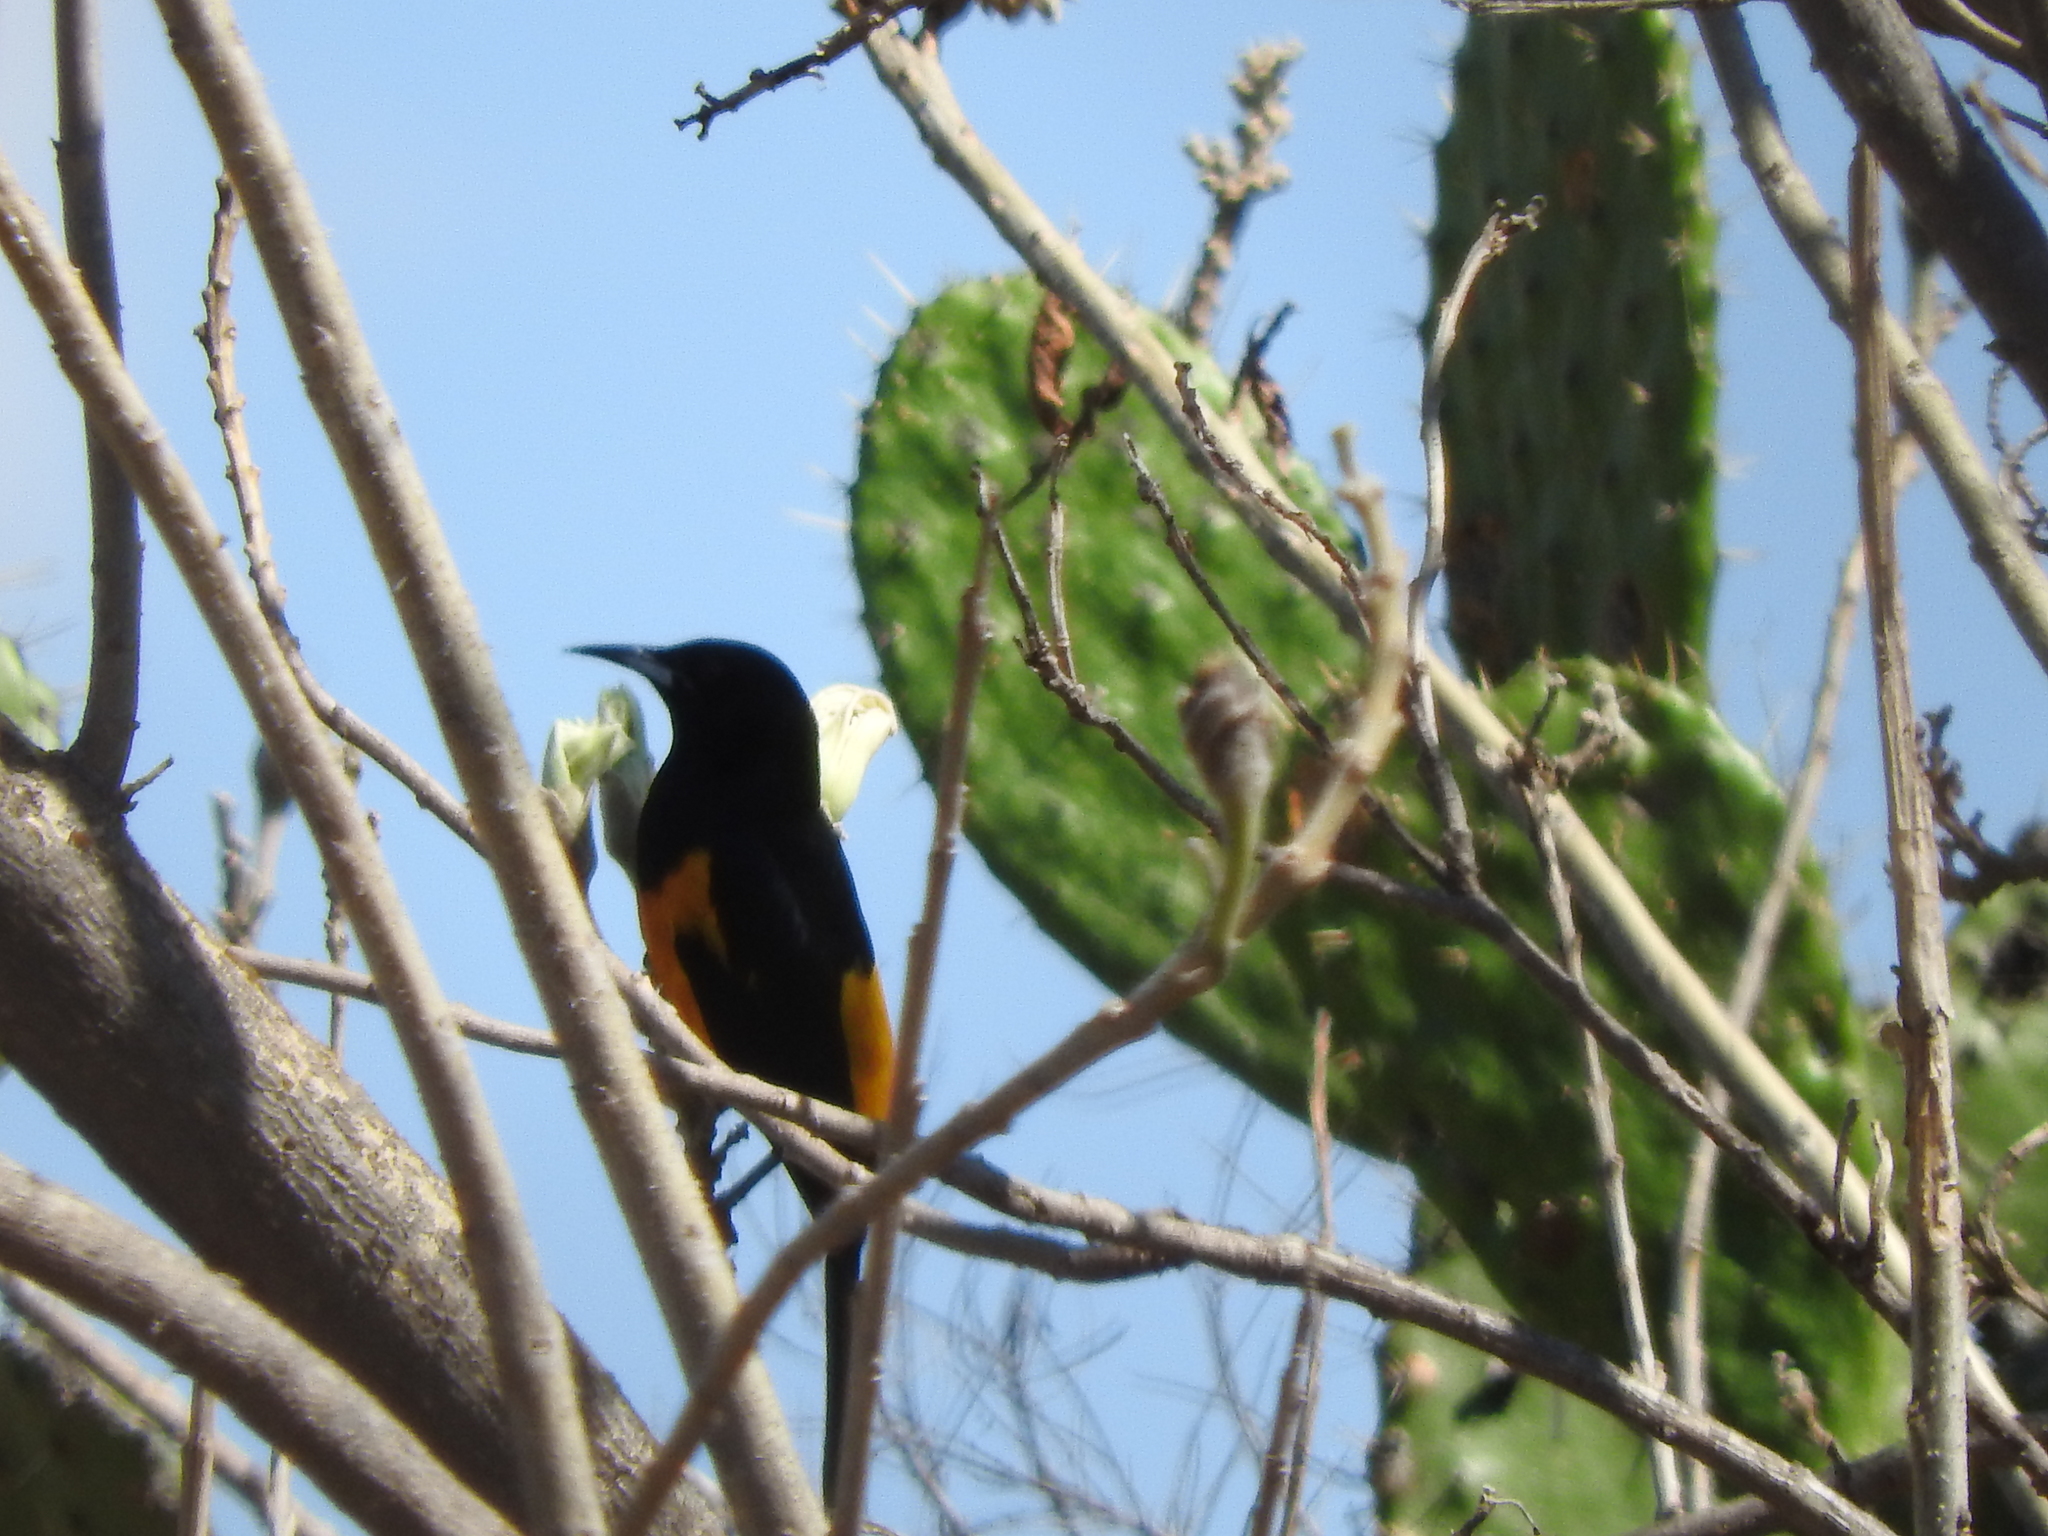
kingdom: Animalia
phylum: Chordata
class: Aves
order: Passeriformes
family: Icteridae
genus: Icterus
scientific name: Icterus wagleri
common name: Black-vented oriole
